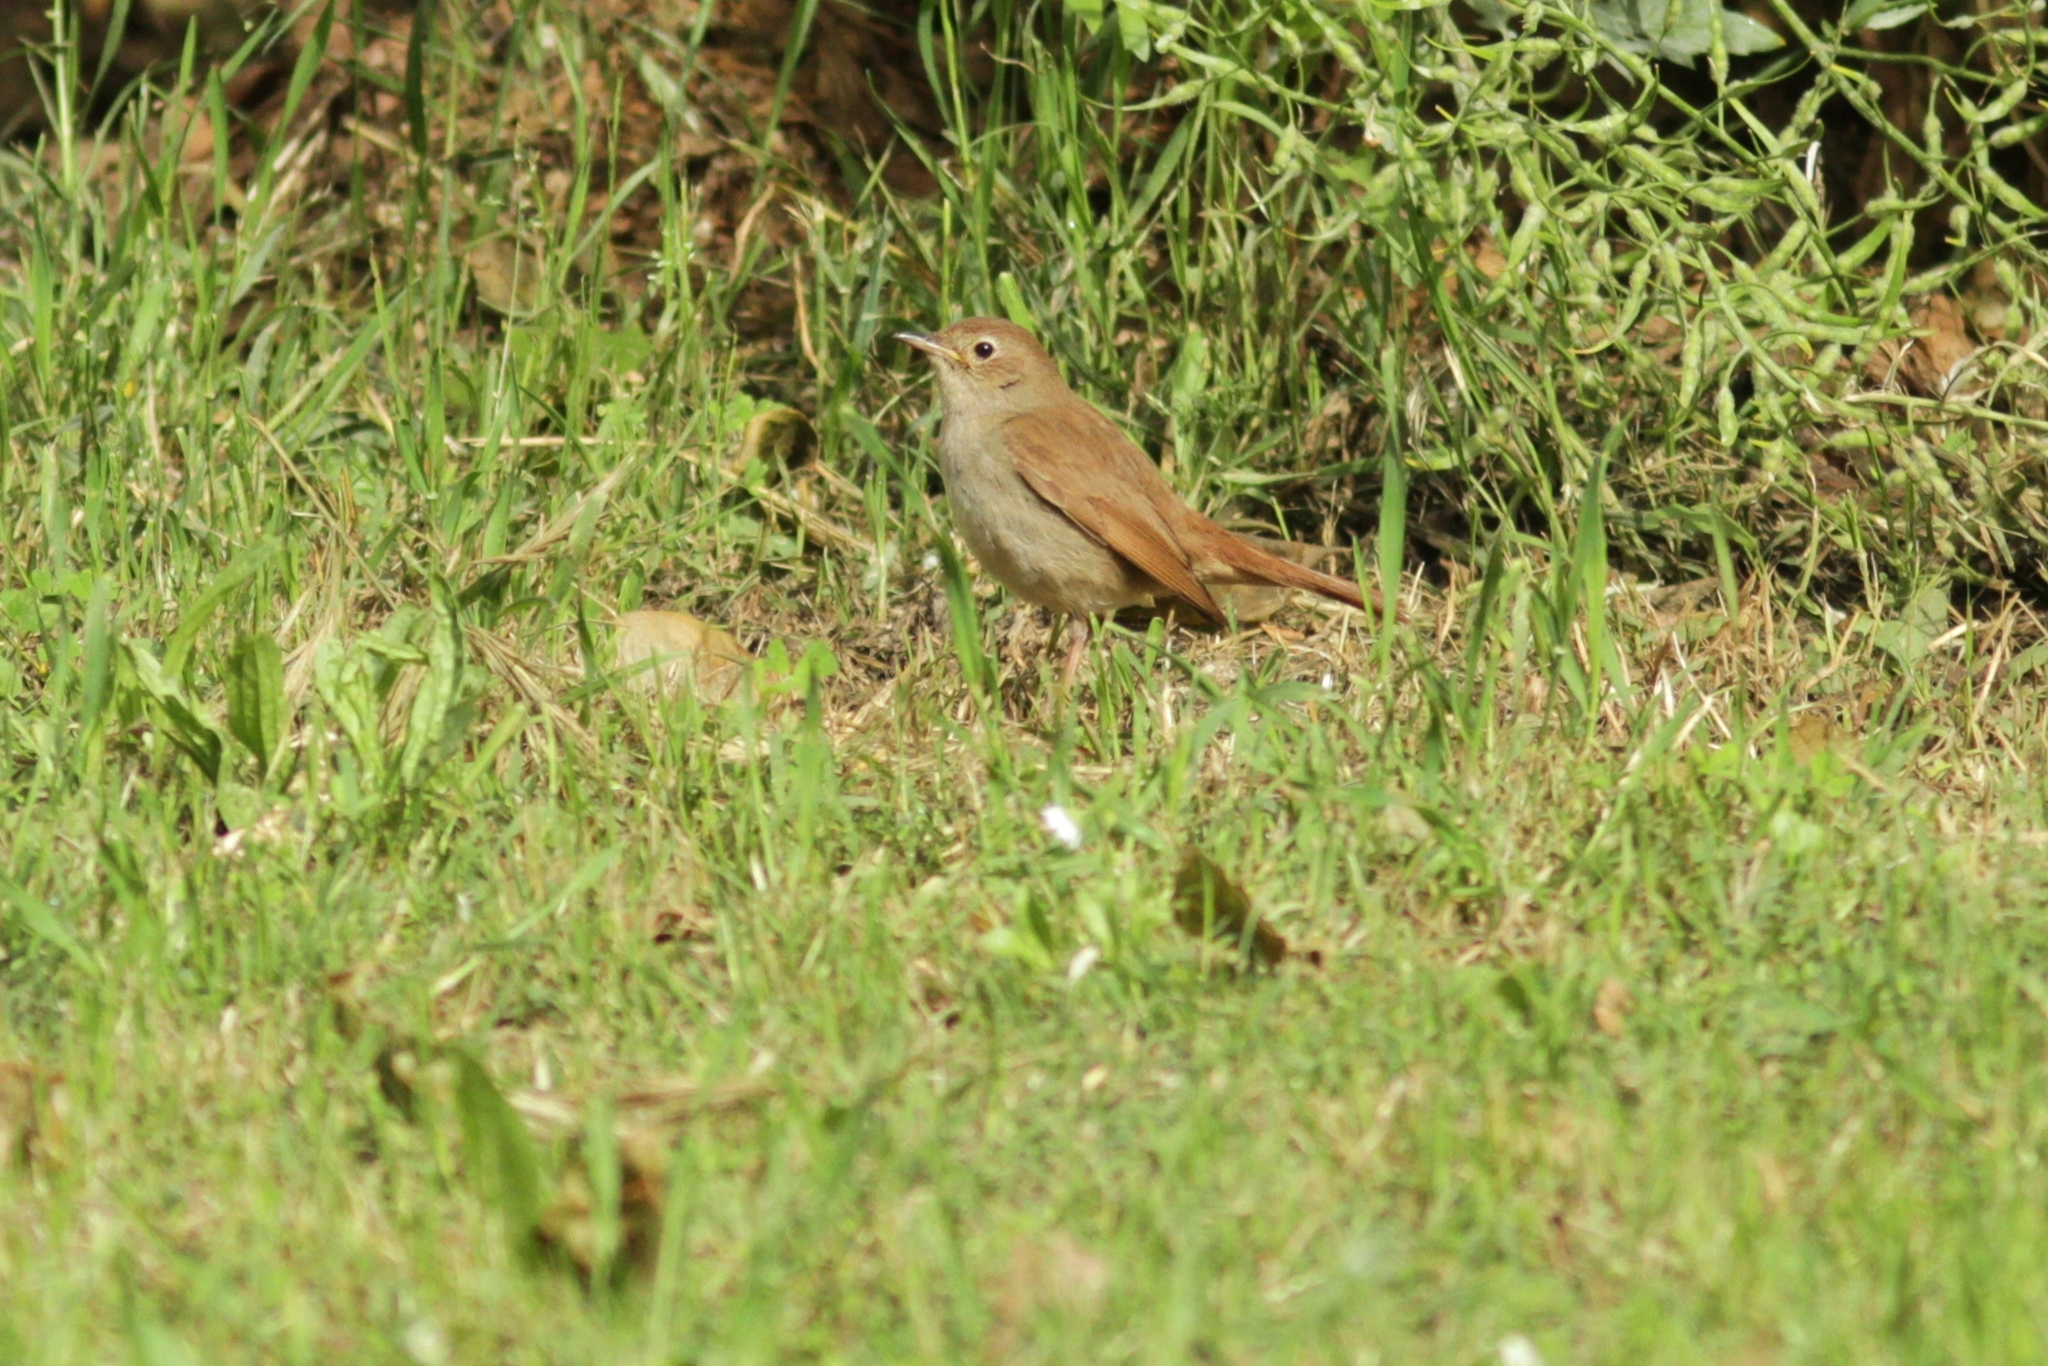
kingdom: Animalia
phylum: Chordata
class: Aves
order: Passeriformes
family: Muscicapidae
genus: Luscinia
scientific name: Luscinia megarhynchos
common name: Common nightingale
